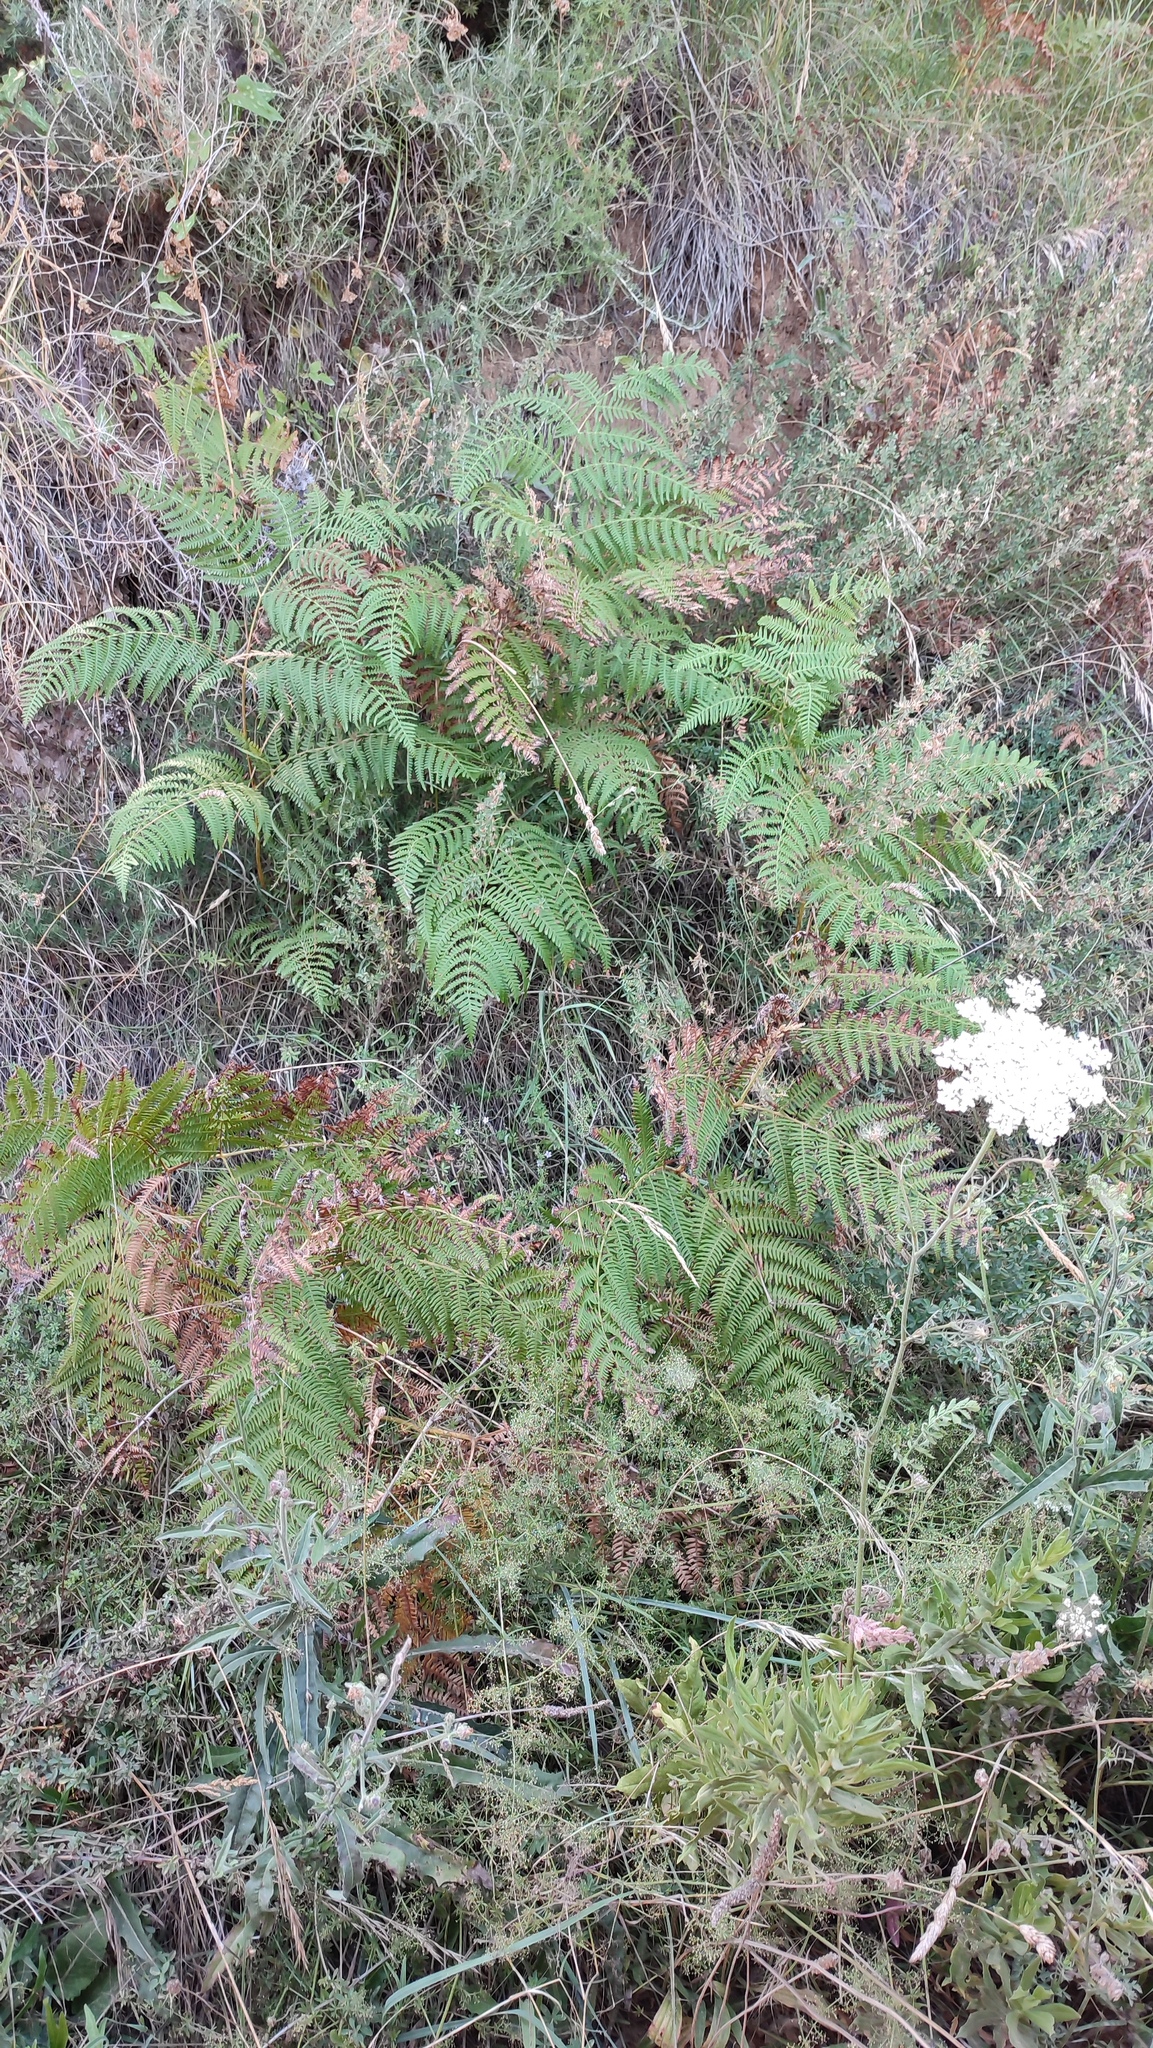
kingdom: Plantae
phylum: Tracheophyta
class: Polypodiopsida
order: Polypodiales
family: Dennstaedtiaceae
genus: Pteridium
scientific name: Pteridium aquilinum
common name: Bracken
